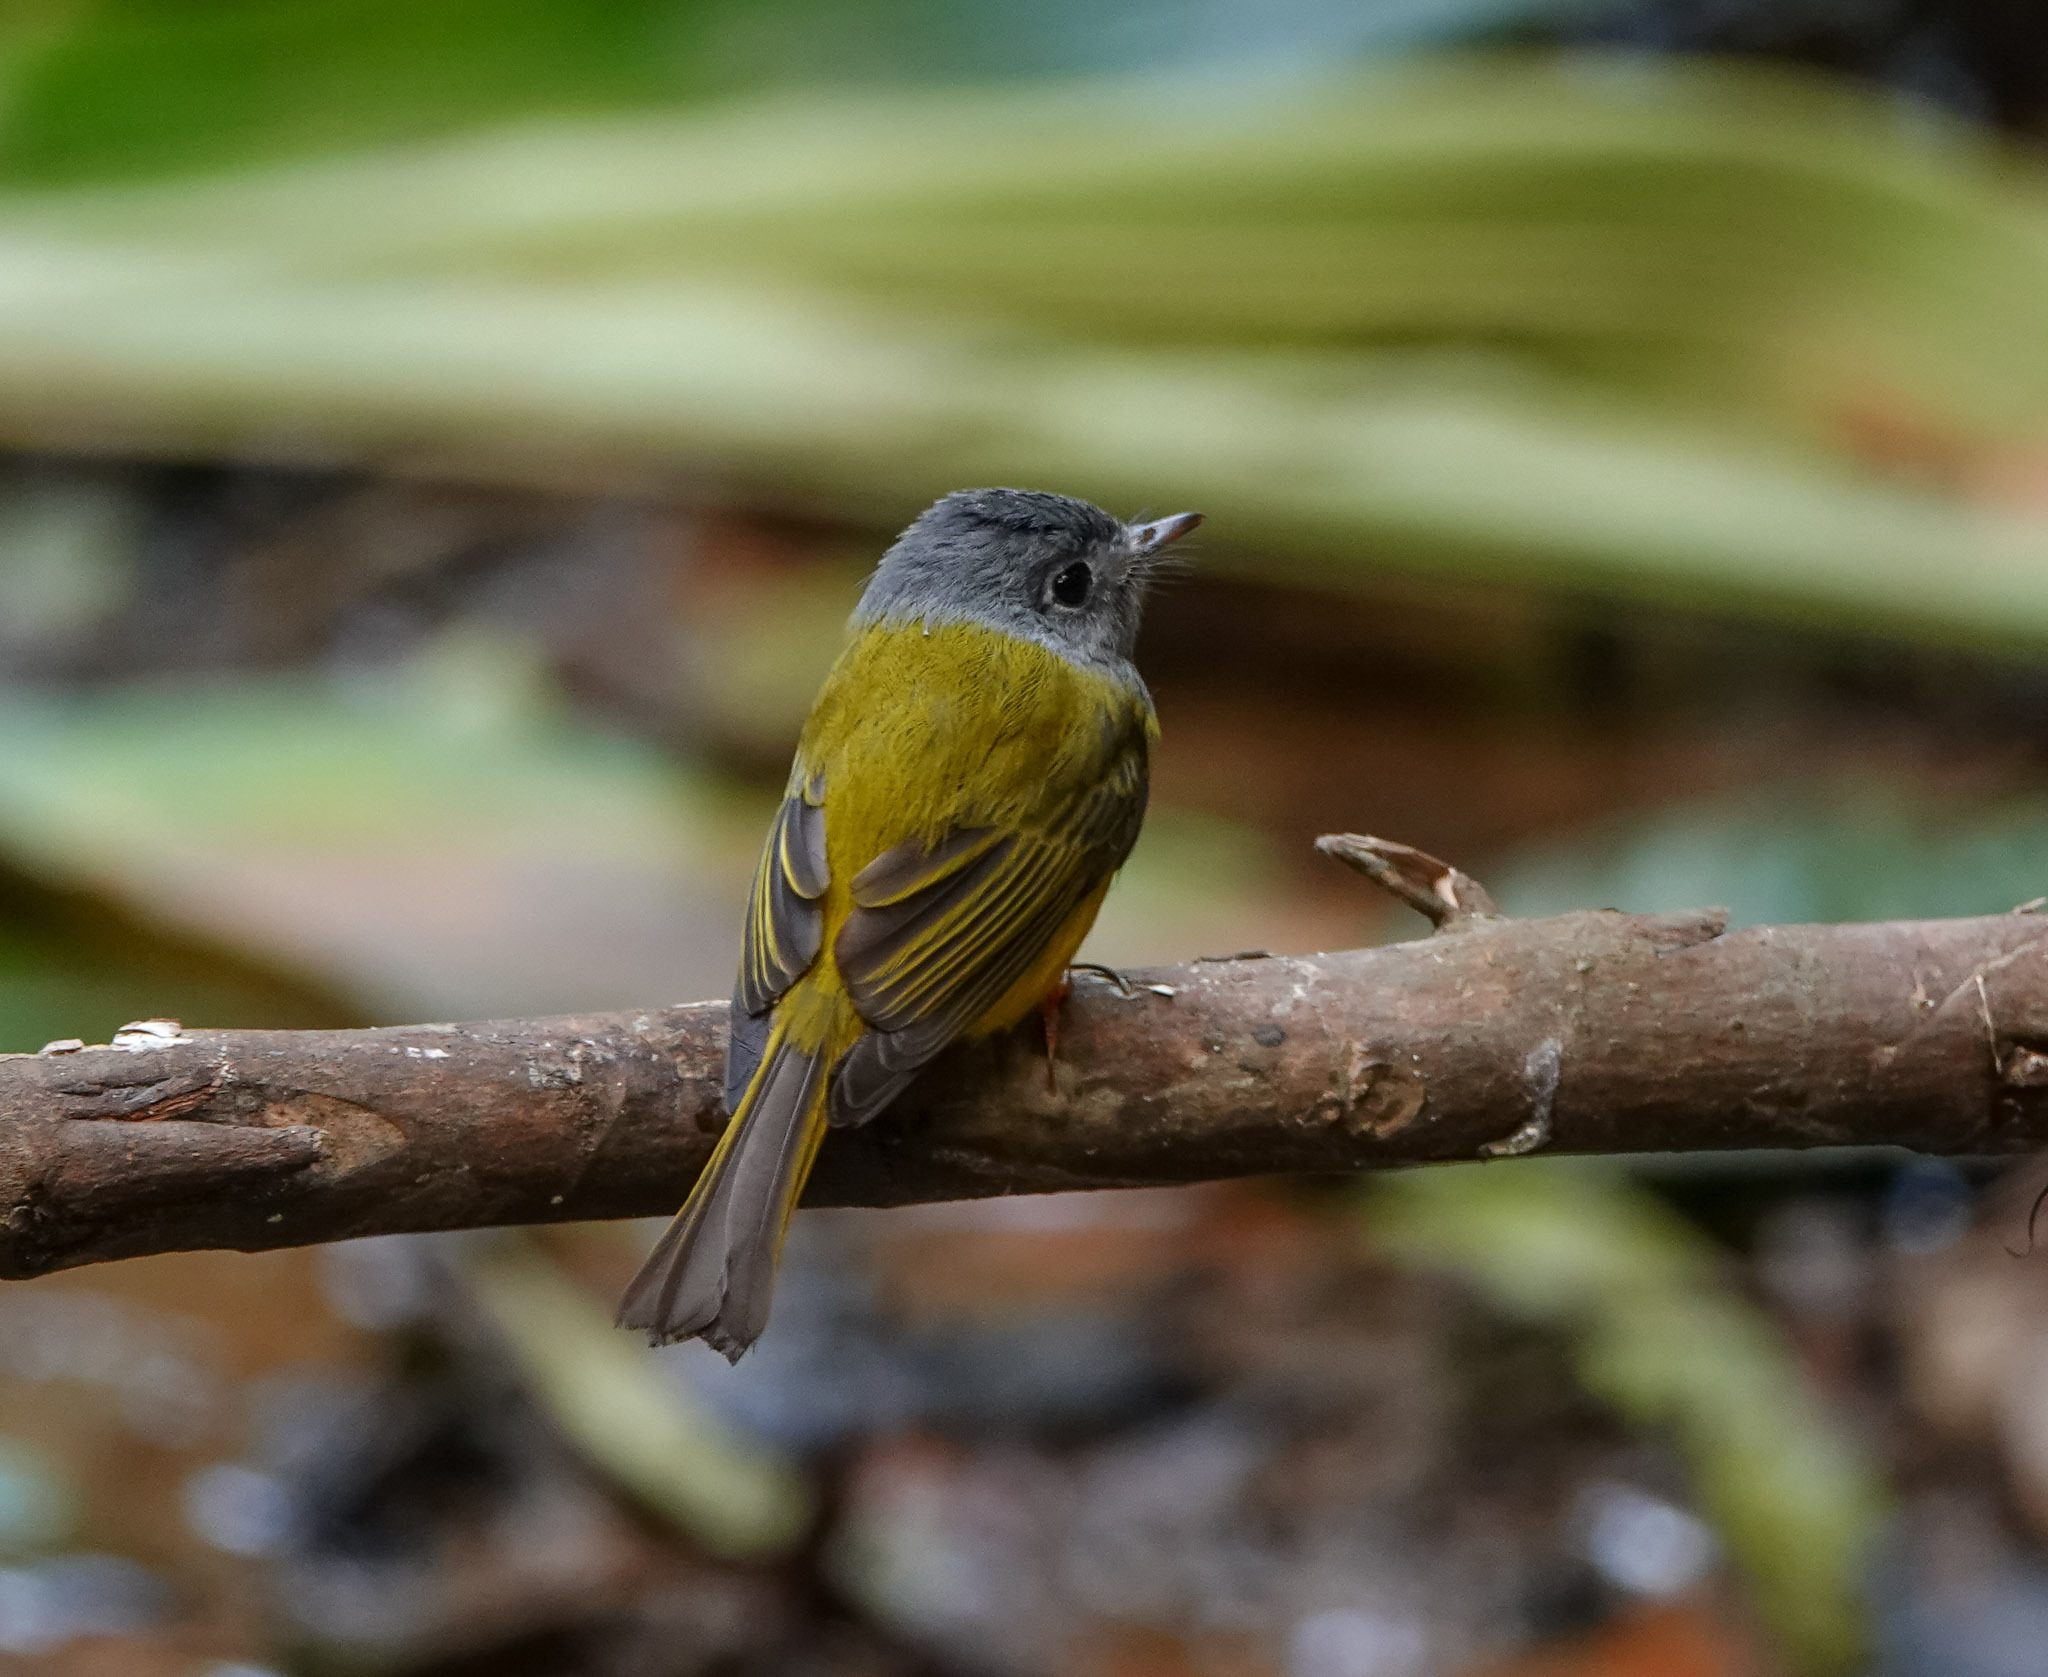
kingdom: Animalia
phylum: Chordata
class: Aves
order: Passeriformes
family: Stenostiridae
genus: Culicicapa
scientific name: Culicicapa ceylonensis
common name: Grey-headed canary-flycatcher
